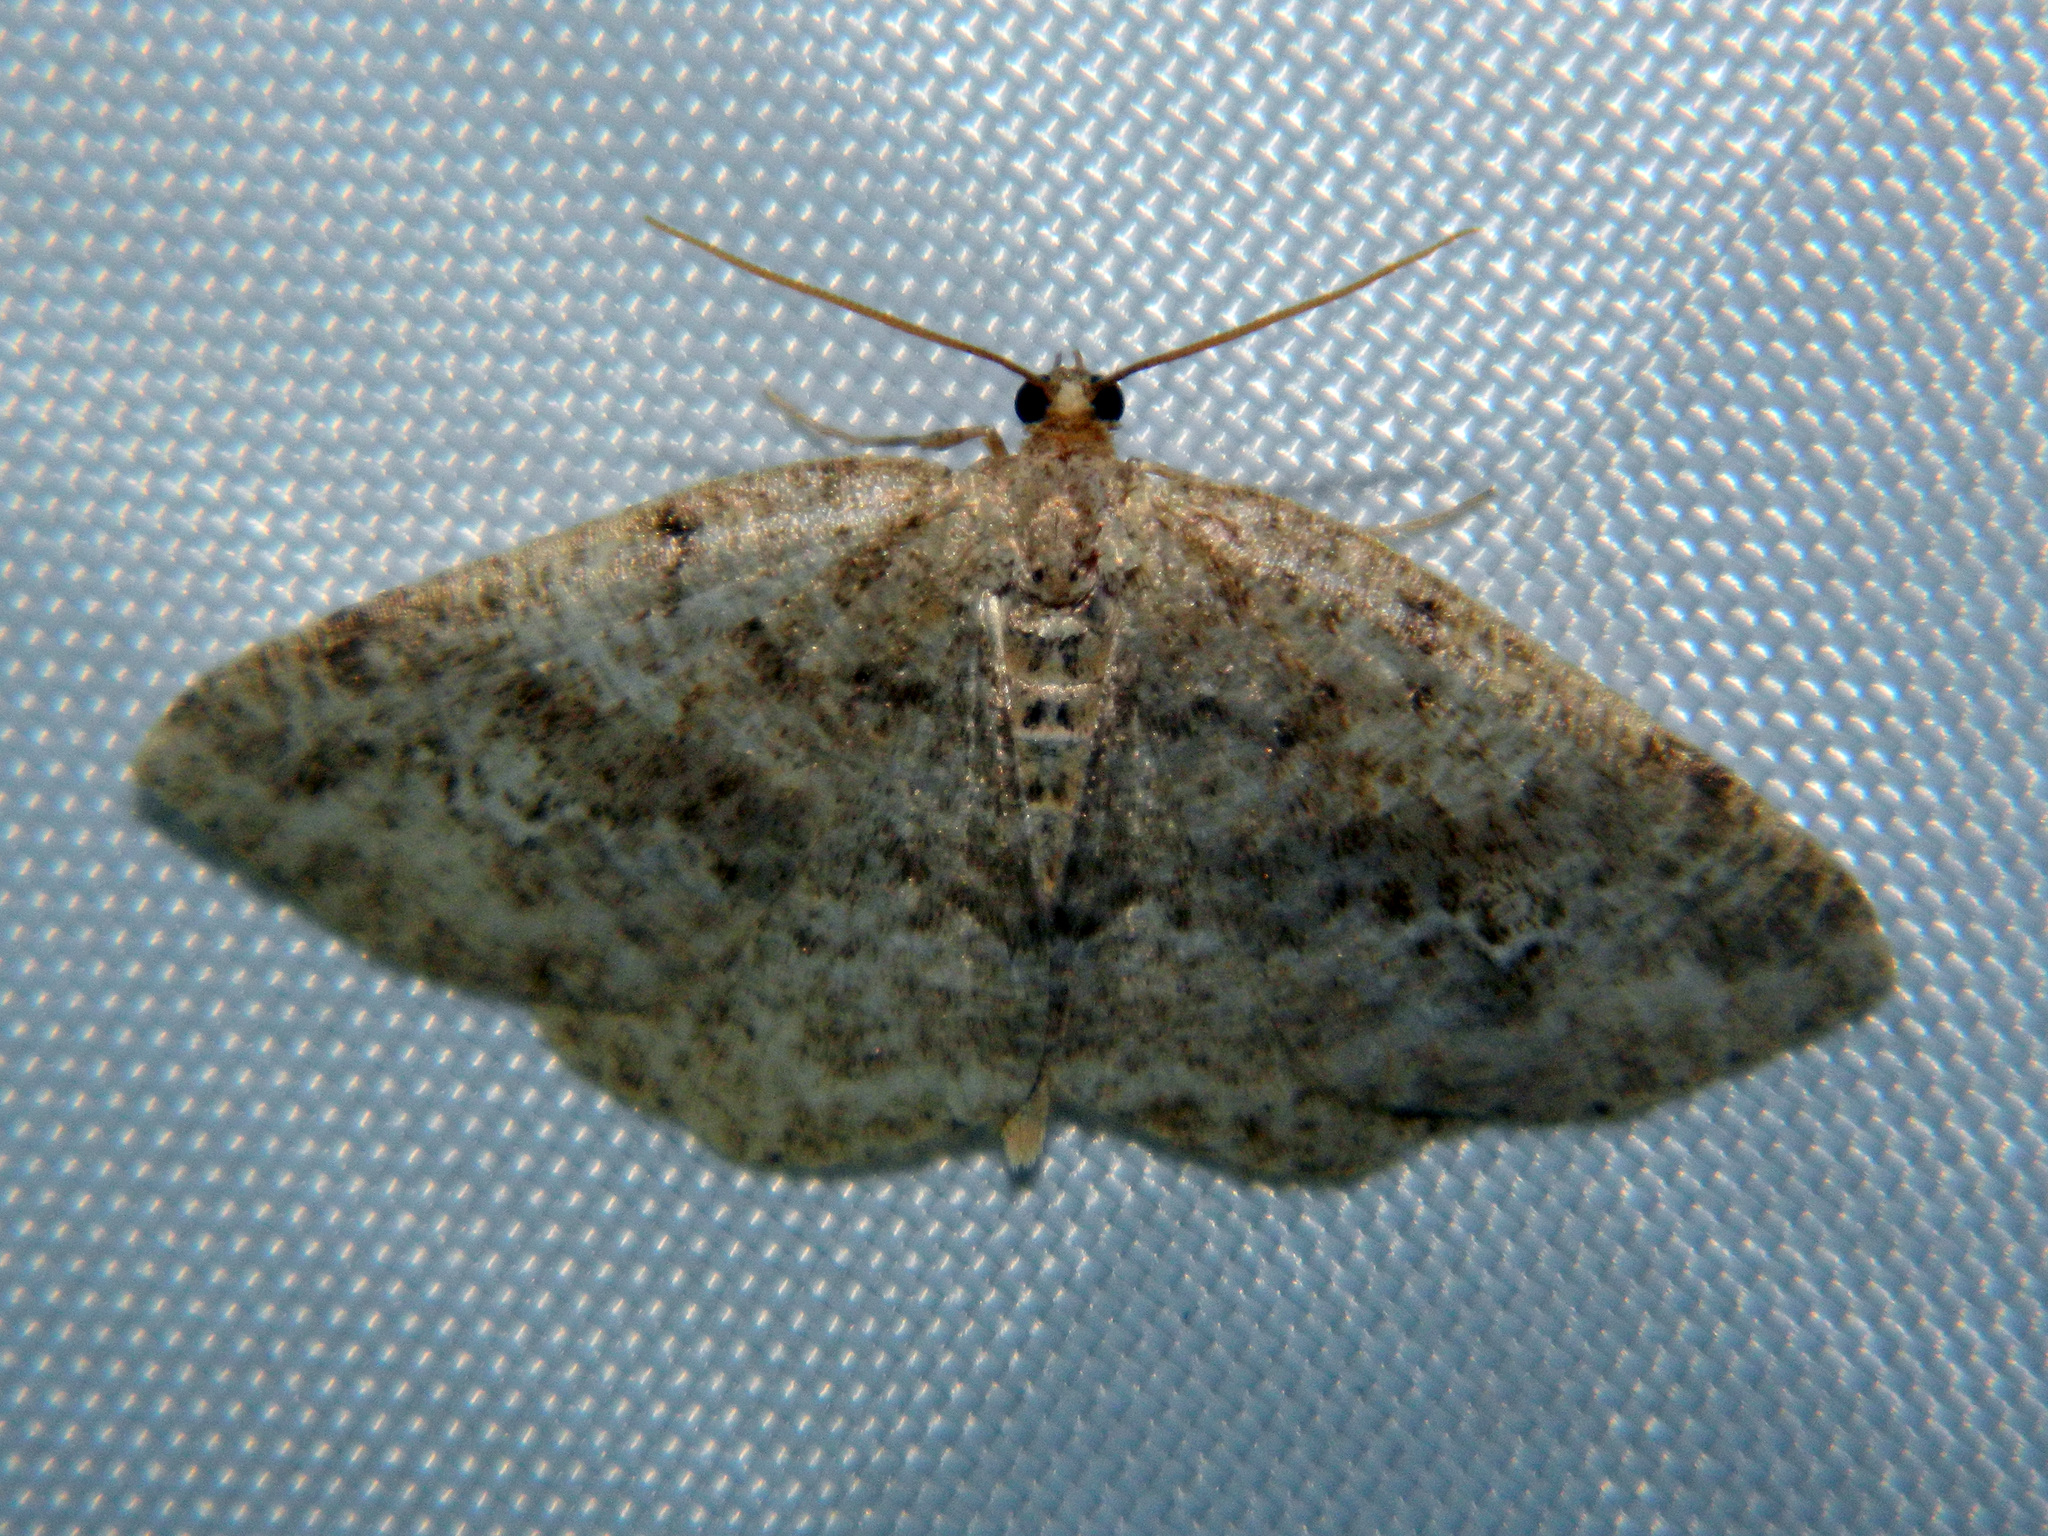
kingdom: Animalia
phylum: Arthropoda
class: Insecta
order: Lepidoptera
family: Geometridae
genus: Homochlodes
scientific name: Homochlodes fritillaria
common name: Pale homochlodes
